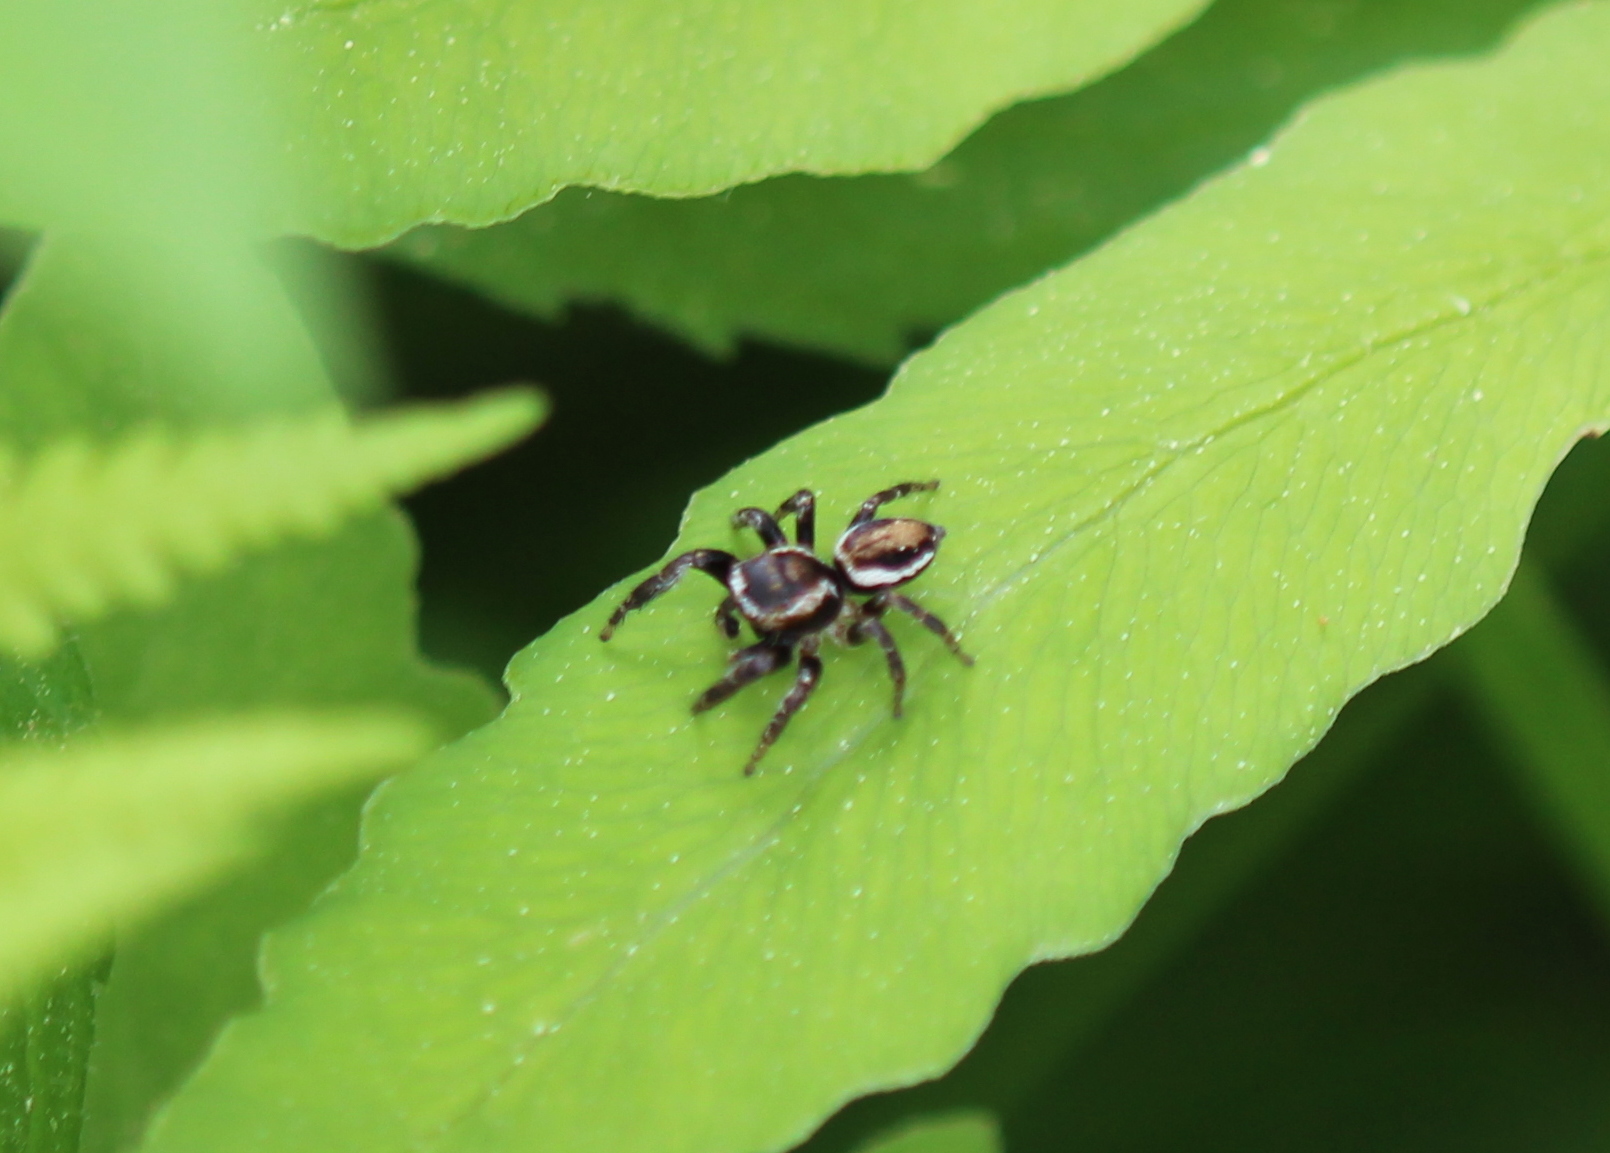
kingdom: Animalia
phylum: Arthropoda
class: Arachnida
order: Araneae
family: Salticidae
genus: Evarcha
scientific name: Evarcha hoyi
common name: Hoy's jumping spider
